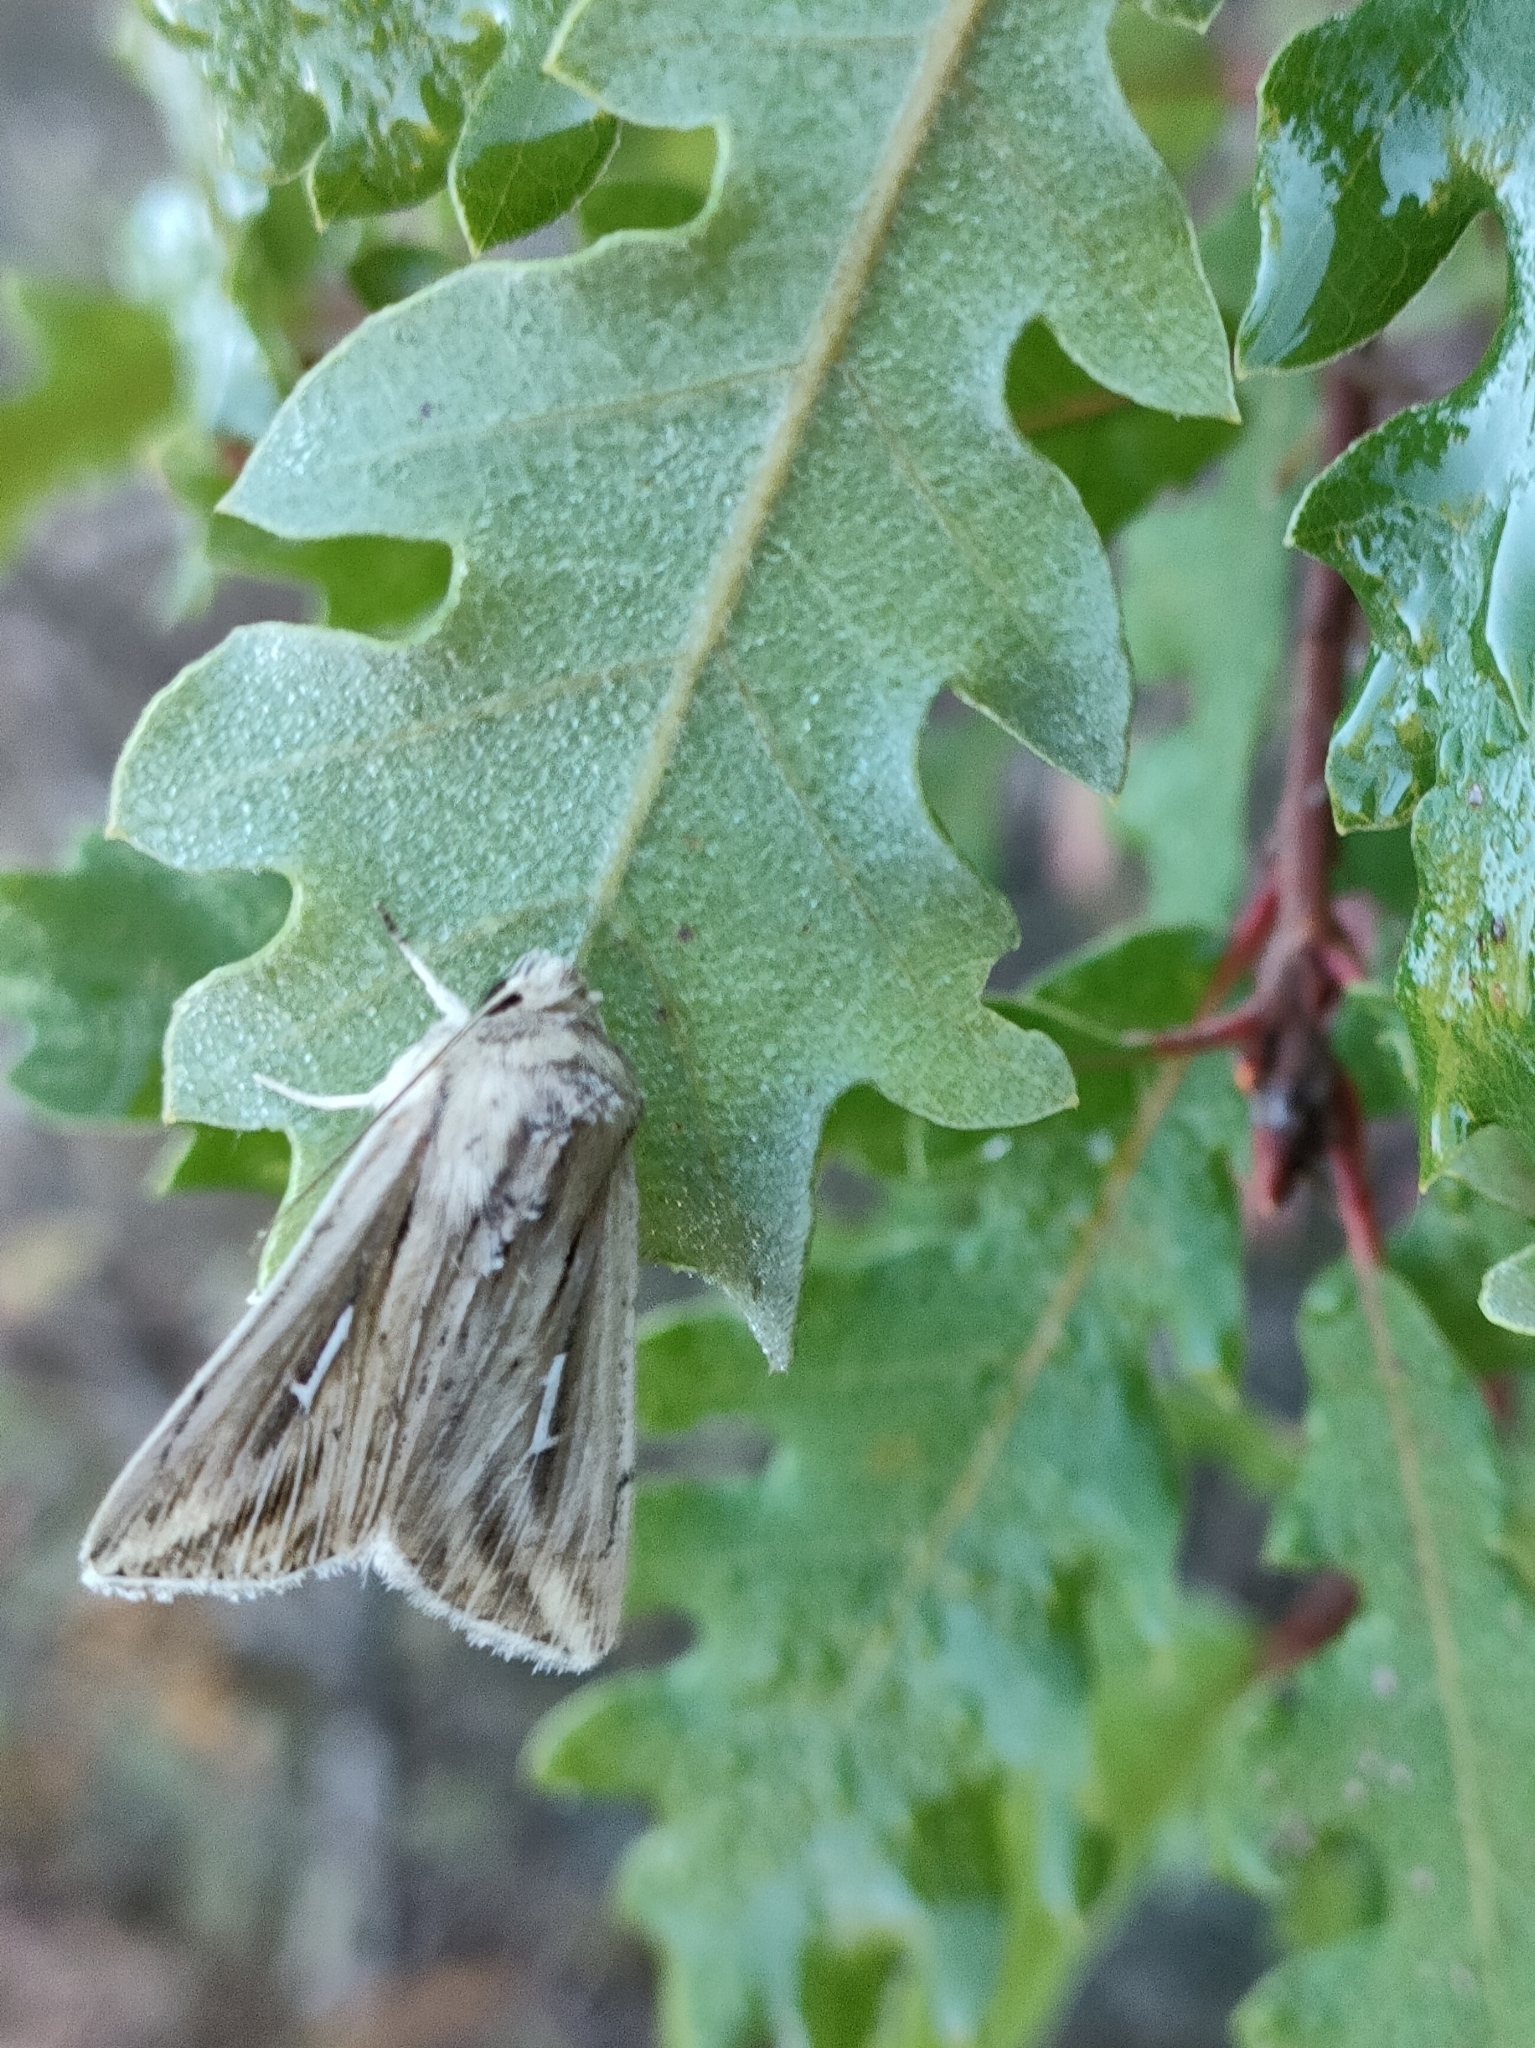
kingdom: Animalia
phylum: Arthropoda
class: Insecta
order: Lepidoptera
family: Noctuidae
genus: Mythimna
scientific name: Mythimna l-album
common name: L-album wainscot
